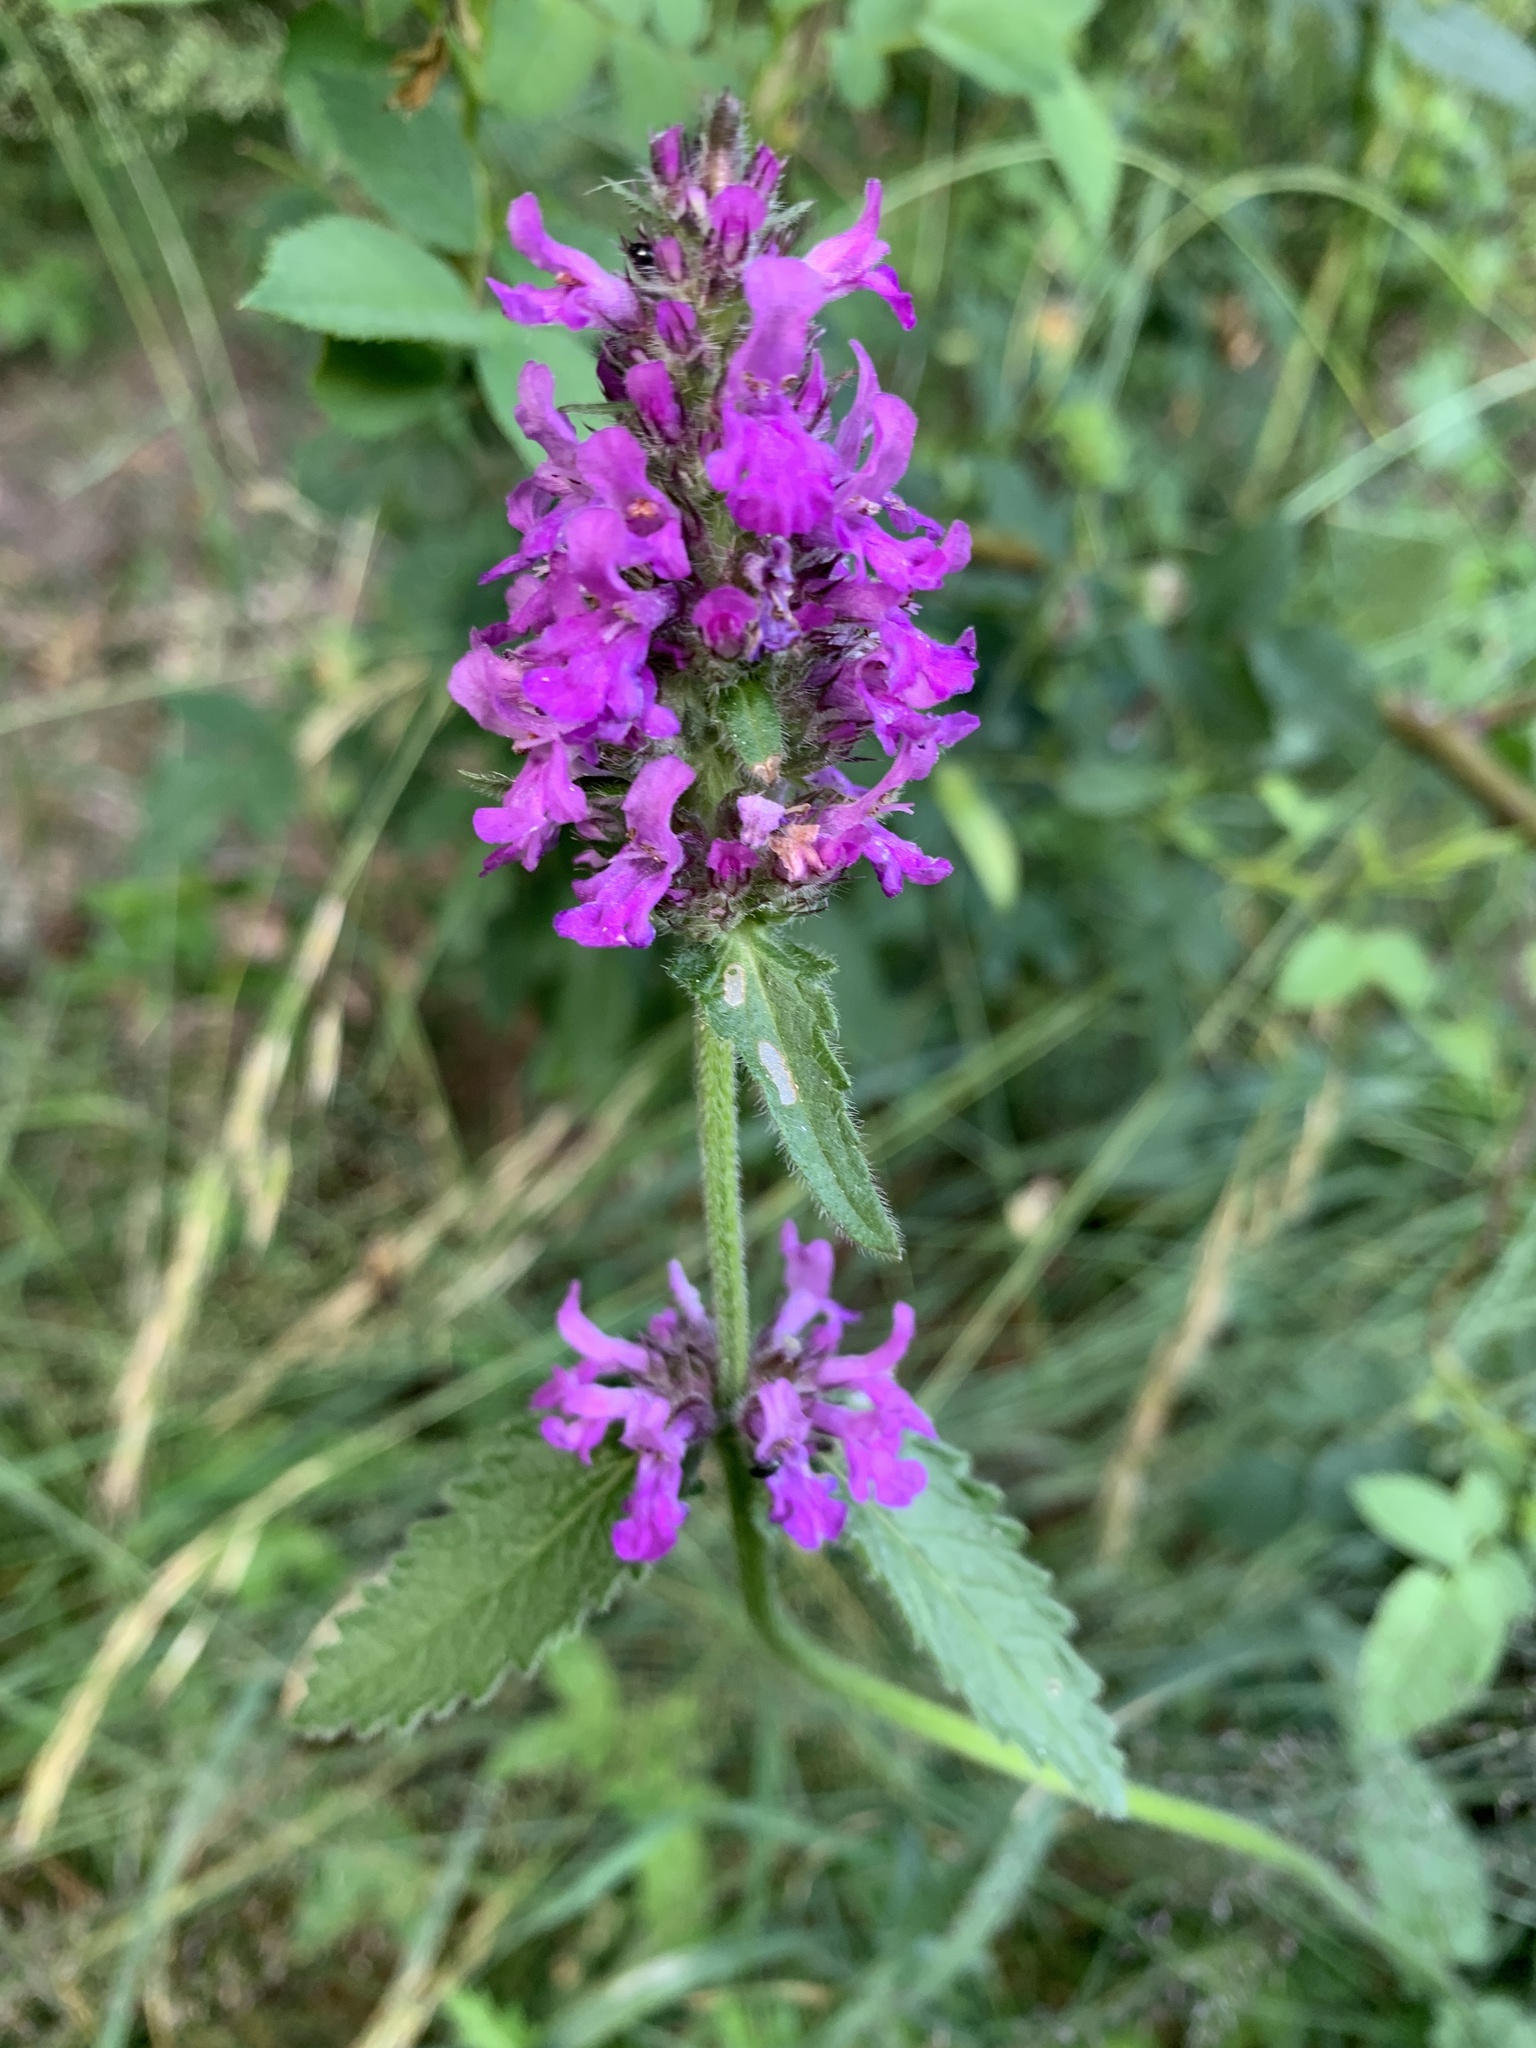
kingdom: Plantae
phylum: Tracheophyta
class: Magnoliopsida
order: Lamiales
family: Lamiaceae
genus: Betonica
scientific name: Betonica officinalis
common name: Bishop's-wort
